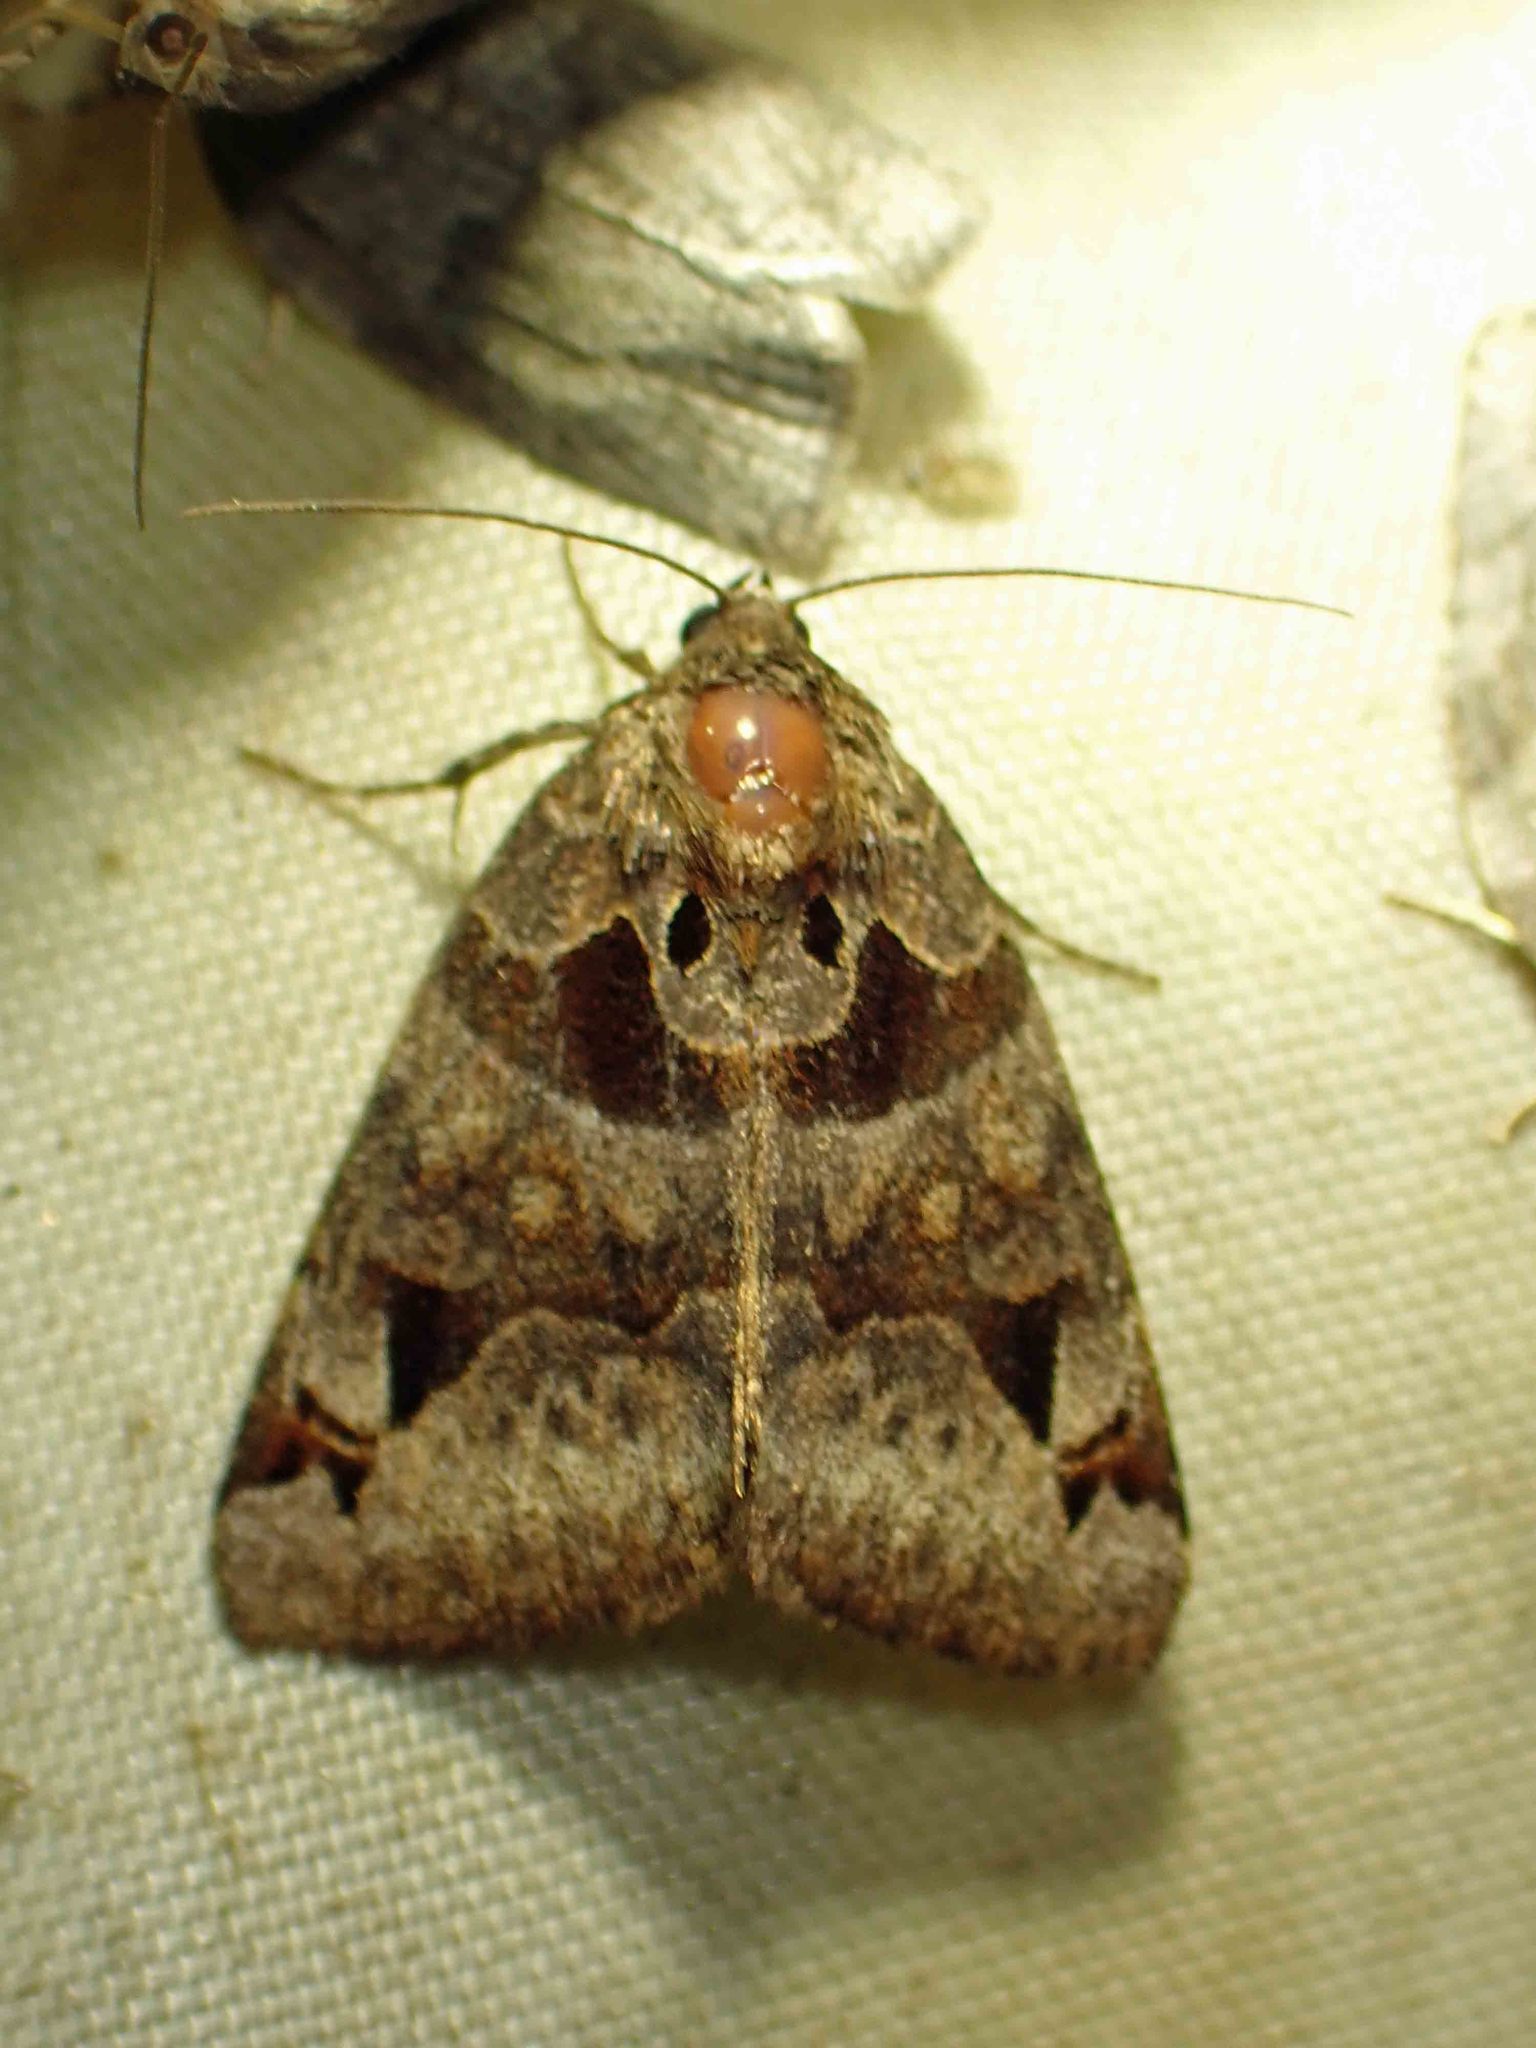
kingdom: Animalia
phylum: Arthropoda
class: Insecta
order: Lepidoptera
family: Erebidae
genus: Euclidia
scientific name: Euclidia cuspidea
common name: Toothed somberwing
